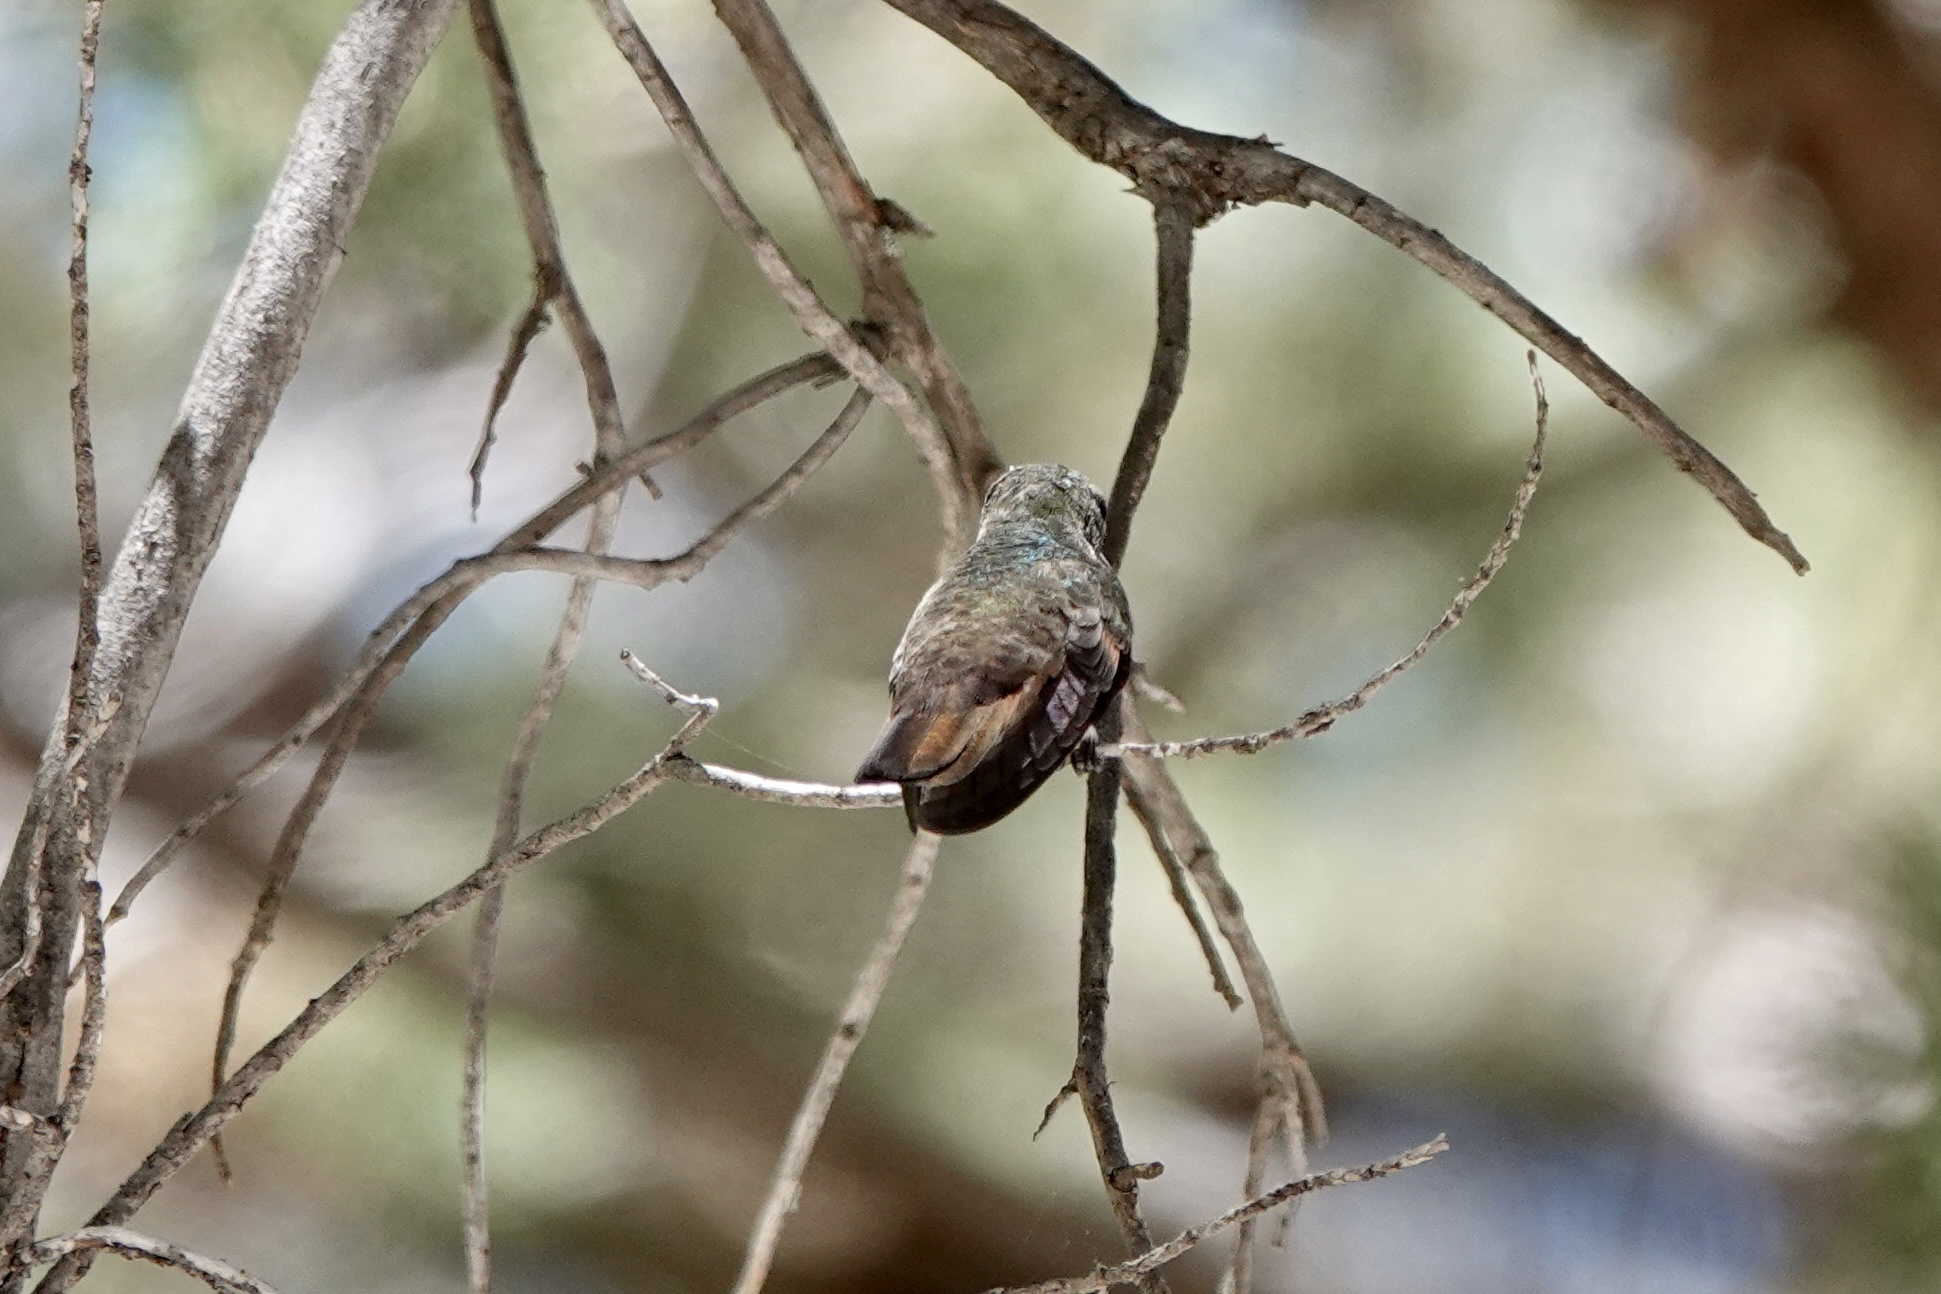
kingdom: Animalia
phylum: Chordata
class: Aves
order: Apodiformes
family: Trochilidae
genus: Saucerottia
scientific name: Saucerottia beryllina
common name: Berylline hummingbird
